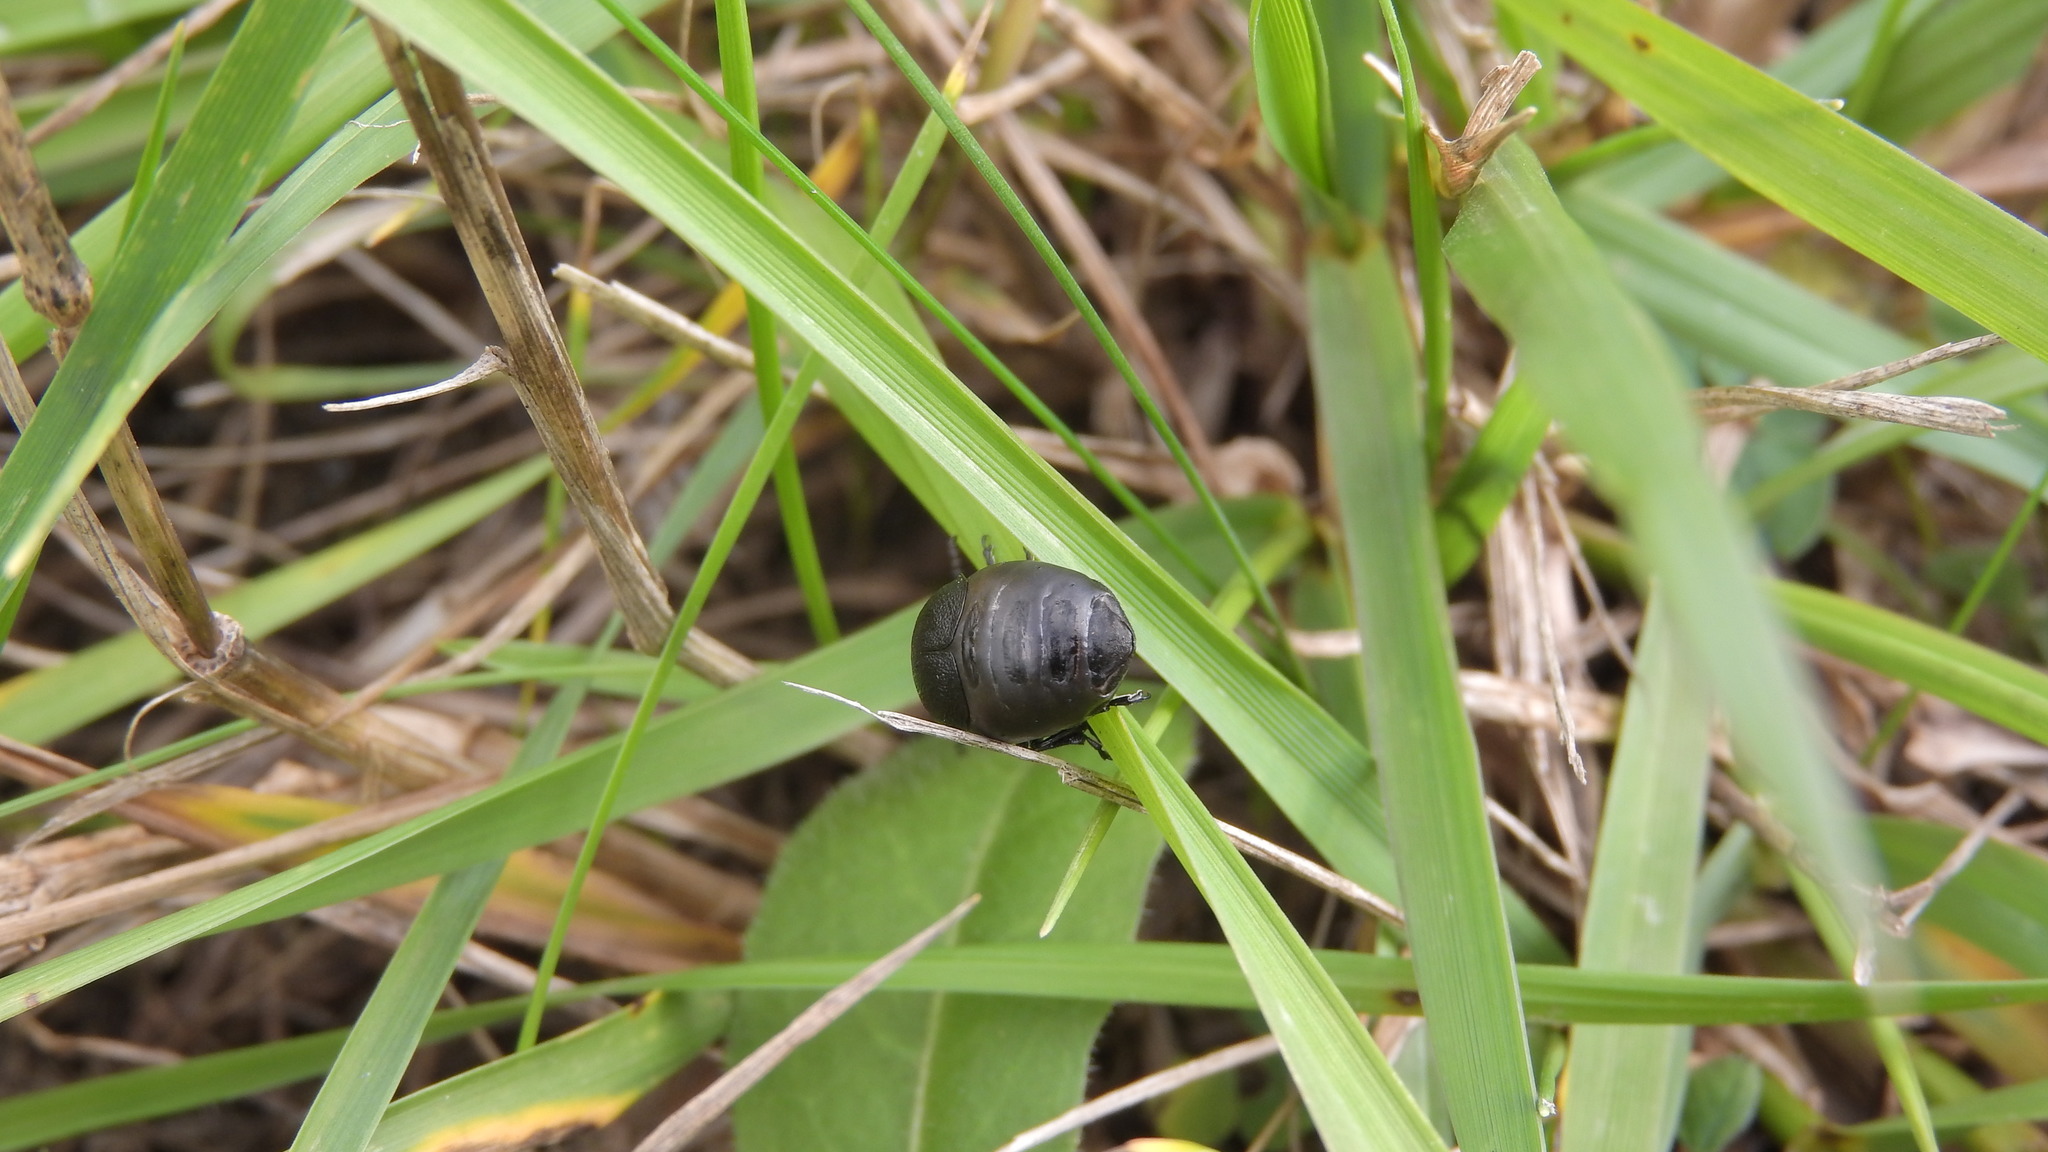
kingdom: Animalia
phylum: Arthropoda
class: Insecta
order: Coleoptera
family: Chrysomelidae
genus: Galeruca
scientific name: Galeruca tanaceti
